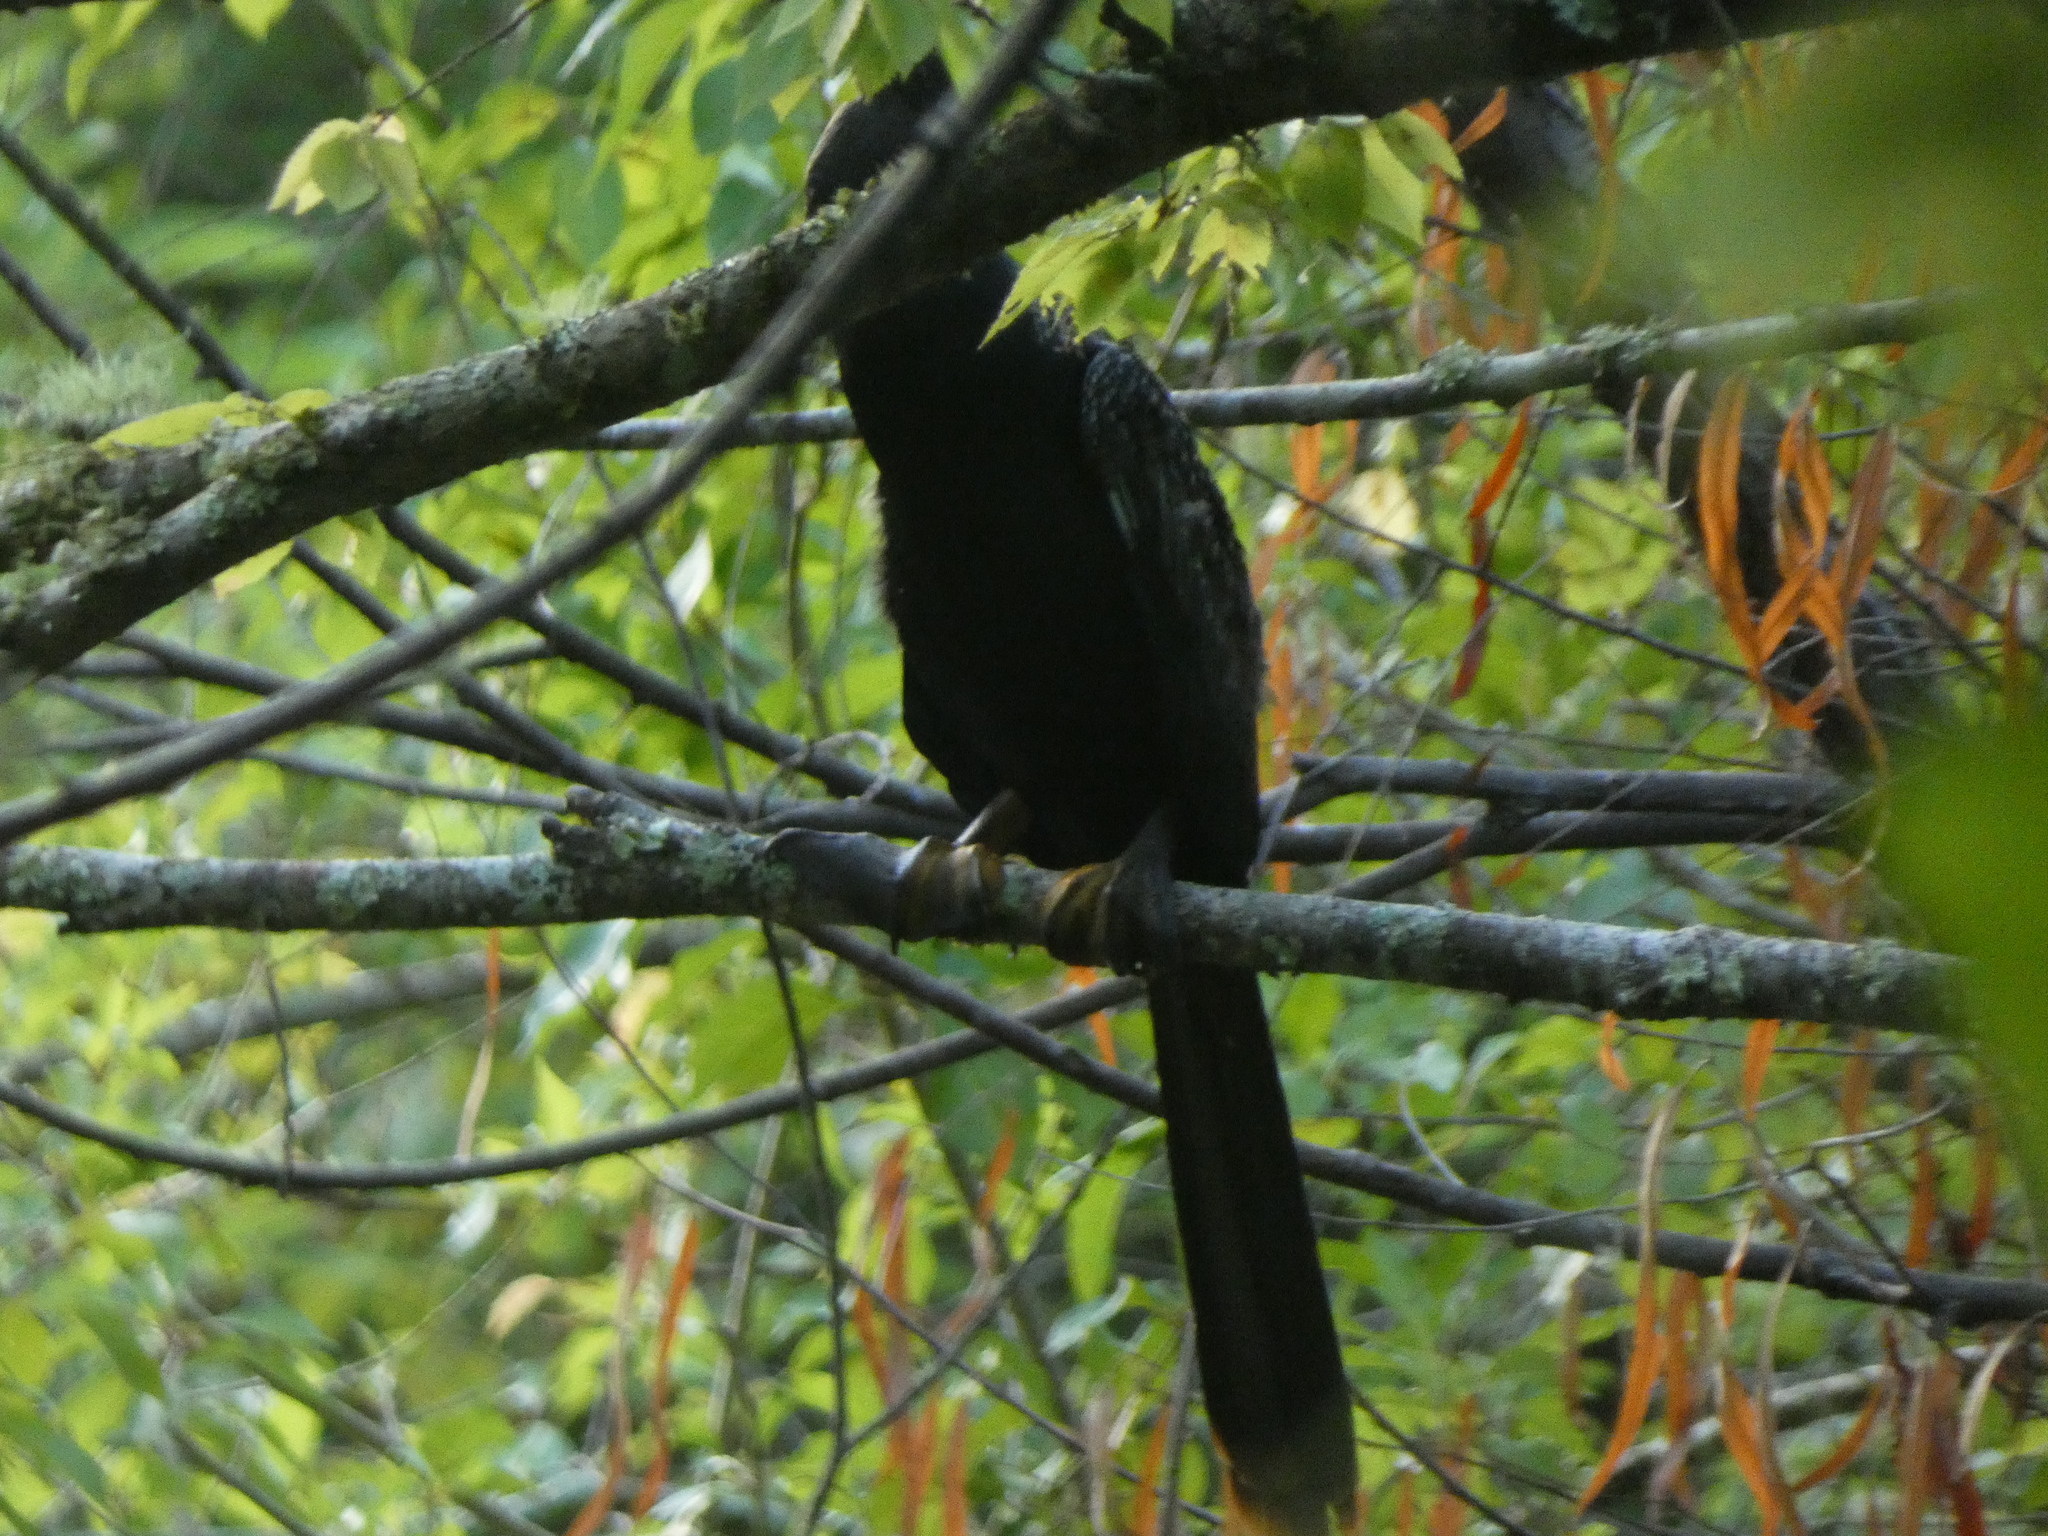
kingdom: Animalia
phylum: Chordata
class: Aves
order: Suliformes
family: Anhingidae
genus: Anhinga
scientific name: Anhinga anhinga
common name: Anhinga
